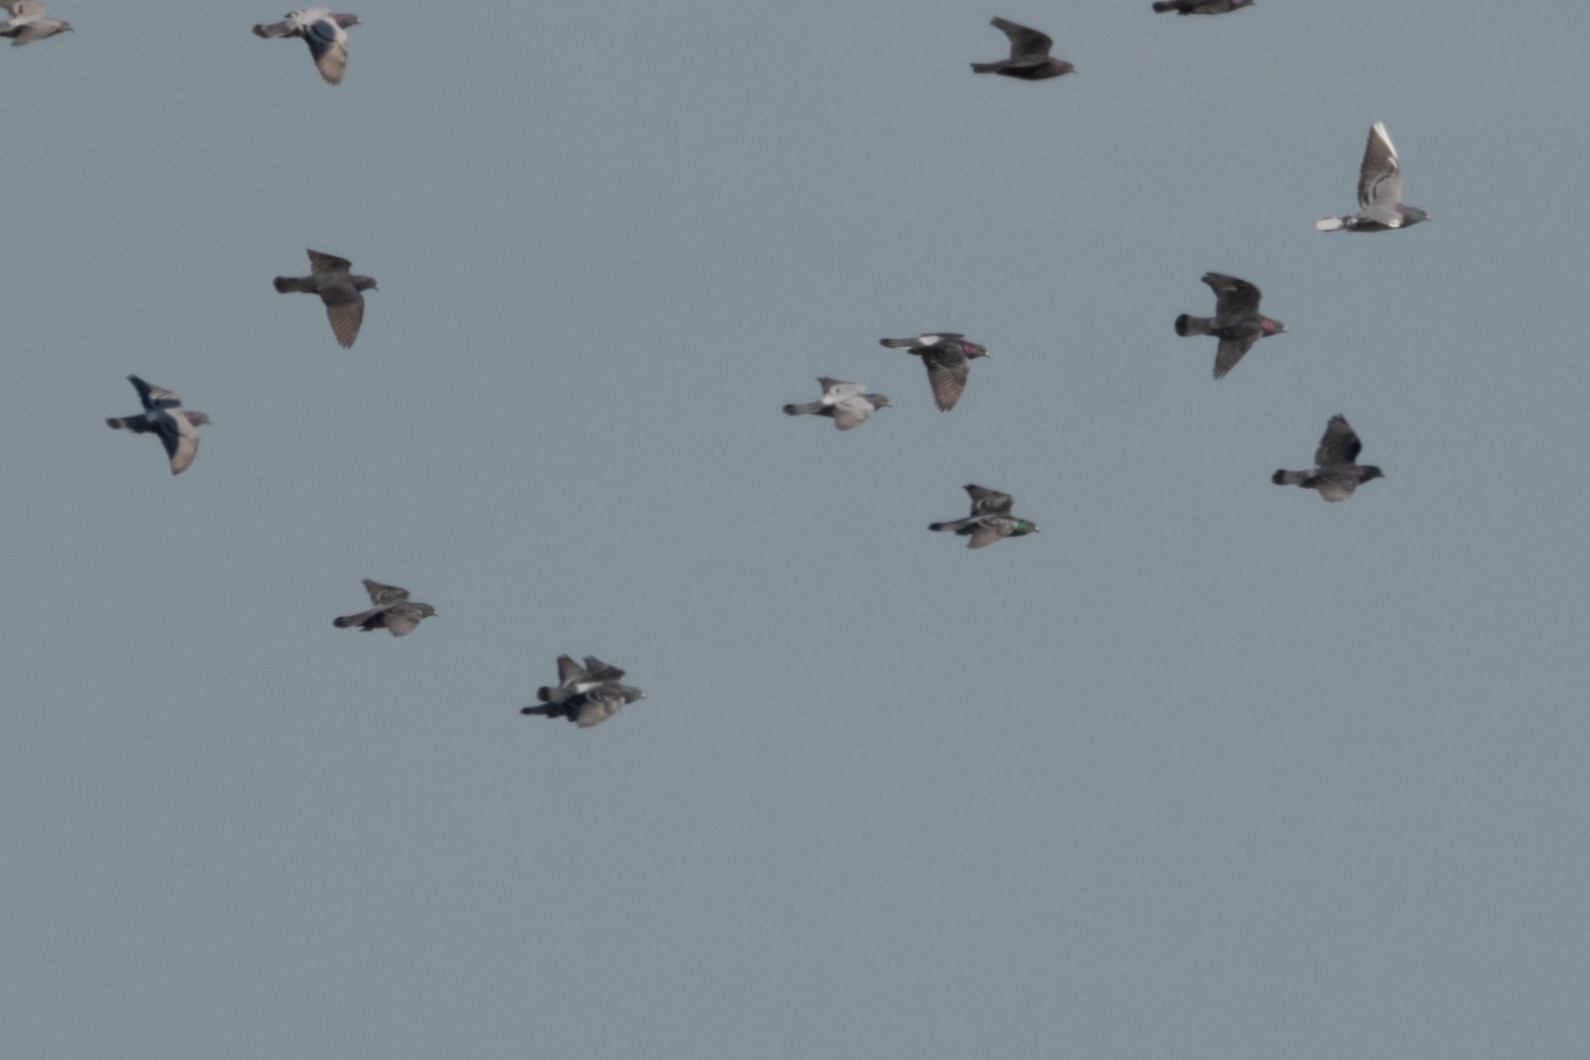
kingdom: Animalia
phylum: Chordata
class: Aves
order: Columbiformes
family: Columbidae
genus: Columba
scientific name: Columba livia
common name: Rock pigeon
